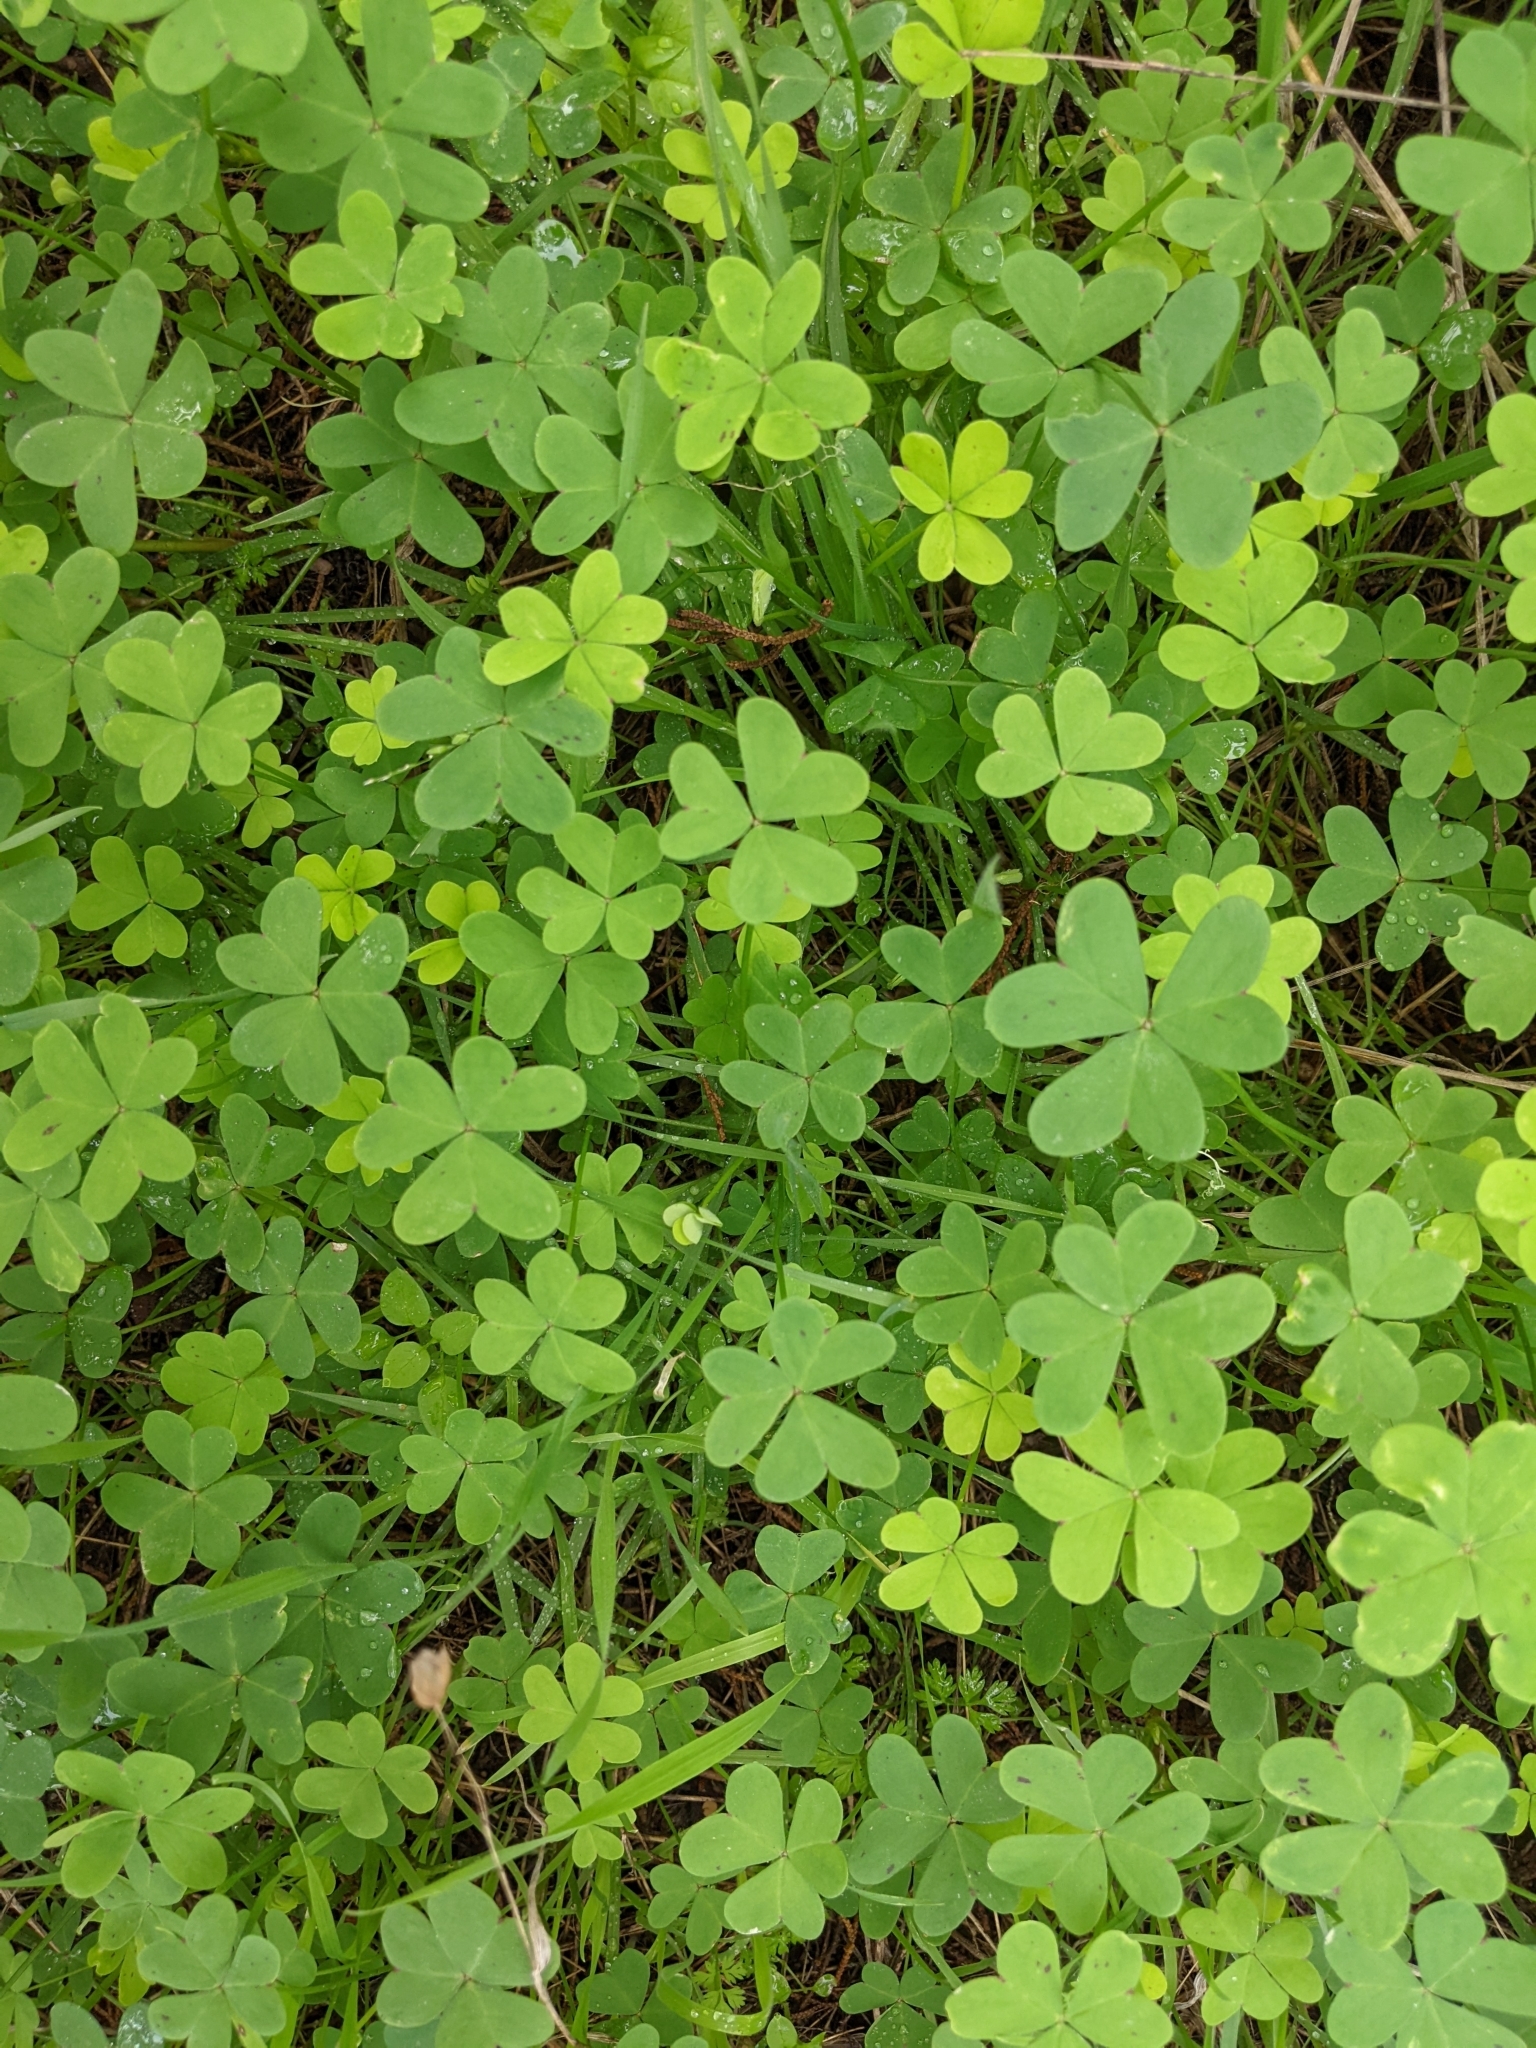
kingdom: Plantae
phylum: Tracheophyta
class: Magnoliopsida
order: Oxalidales
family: Oxalidaceae
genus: Oxalis
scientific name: Oxalis pes-caprae
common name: Bermuda-buttercup
